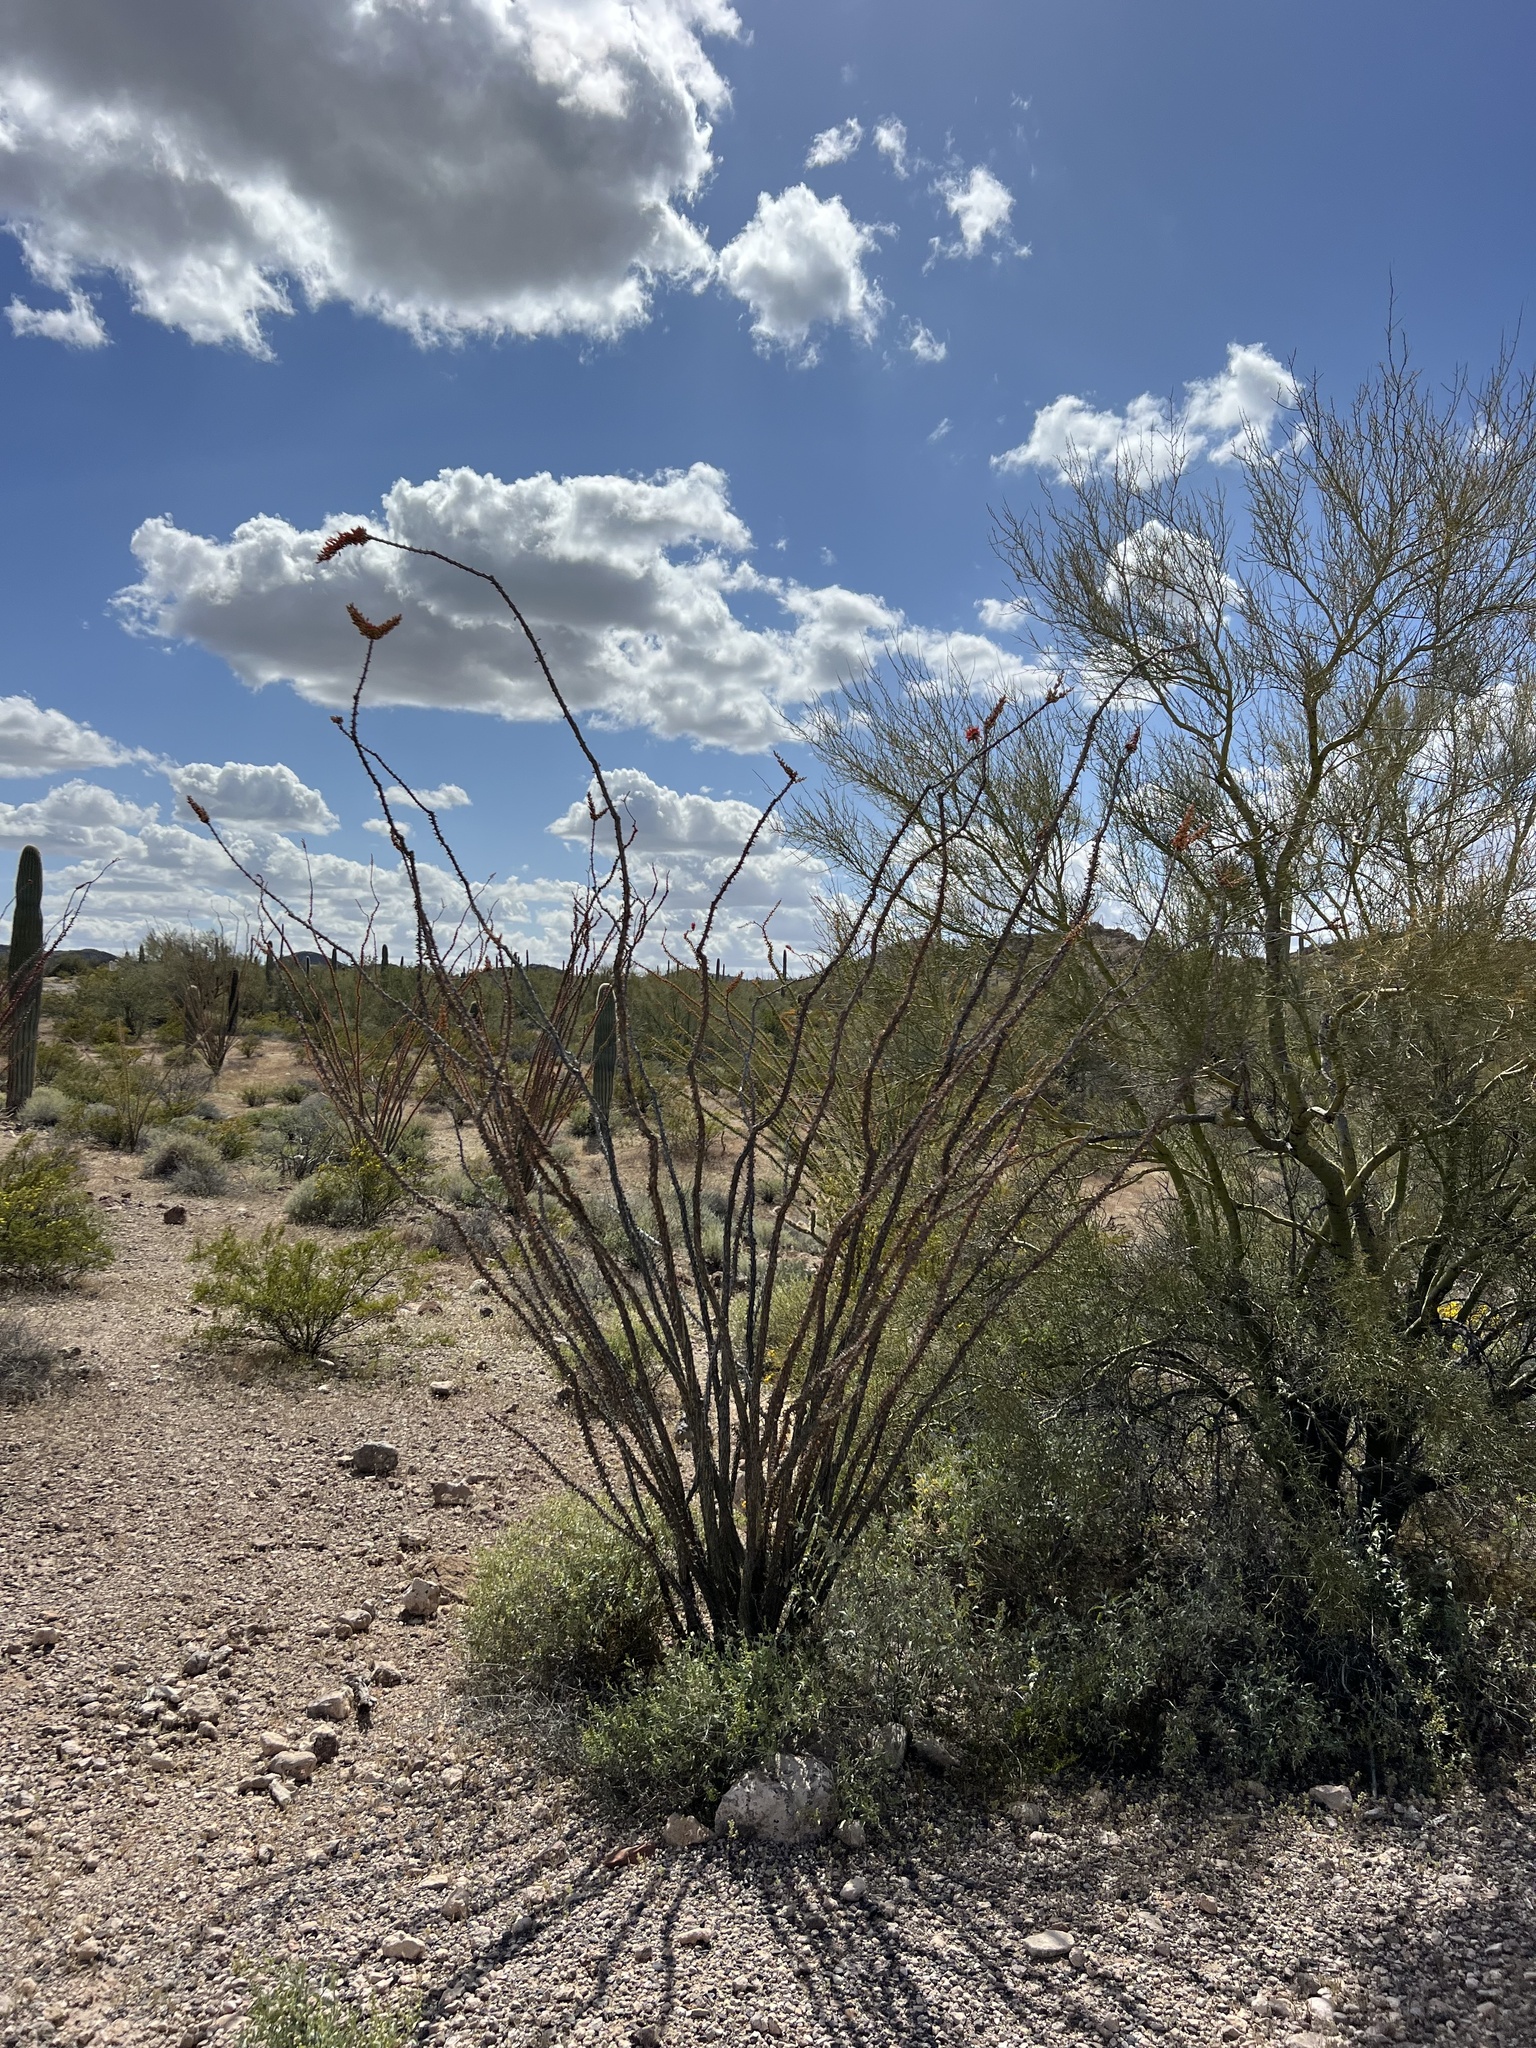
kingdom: Plantae
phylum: Tracheophyta
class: Magnoliopsida
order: Ericales
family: Fouquieriaceae
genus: Fouquieria
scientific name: Fouquieria splendens
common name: Vine-cactus
